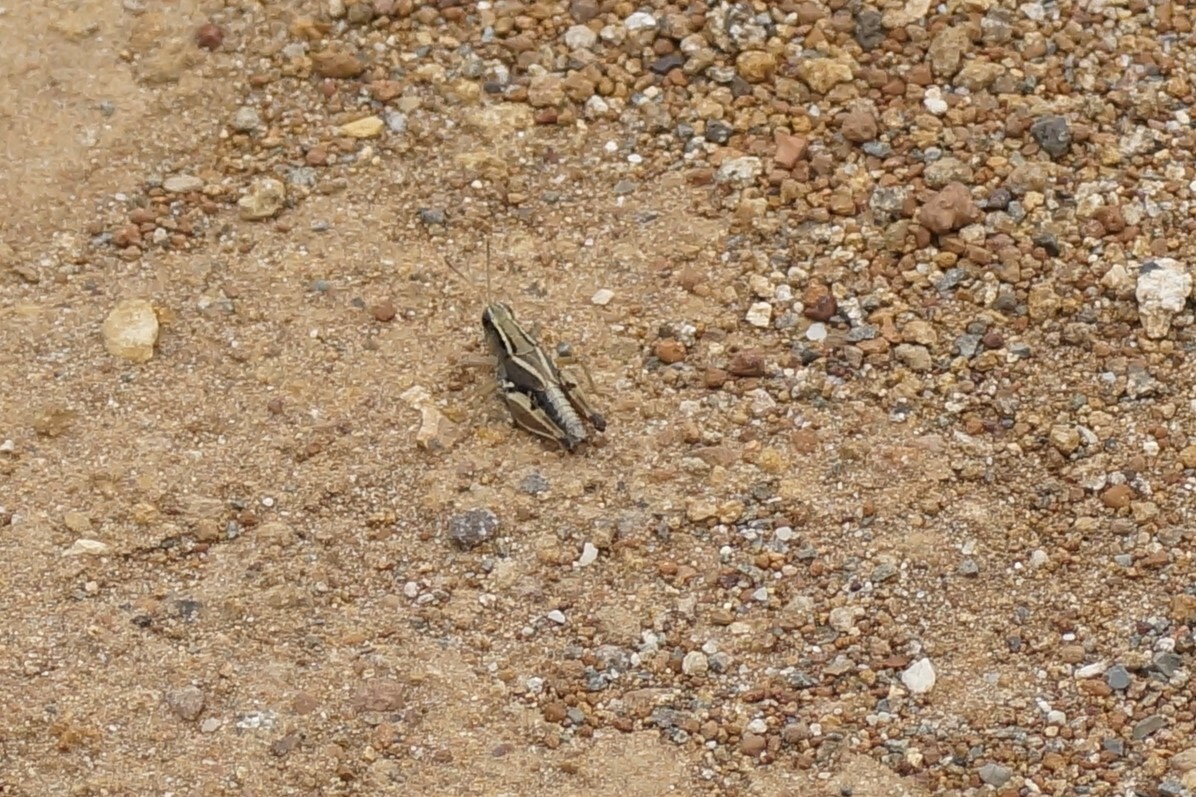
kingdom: Animalia
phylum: Arthropoda
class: Insecta
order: Orthoptera
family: Acrididae
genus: Phaulacridium
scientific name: Phaulacridium vittatum
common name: Wingless grasshopper
